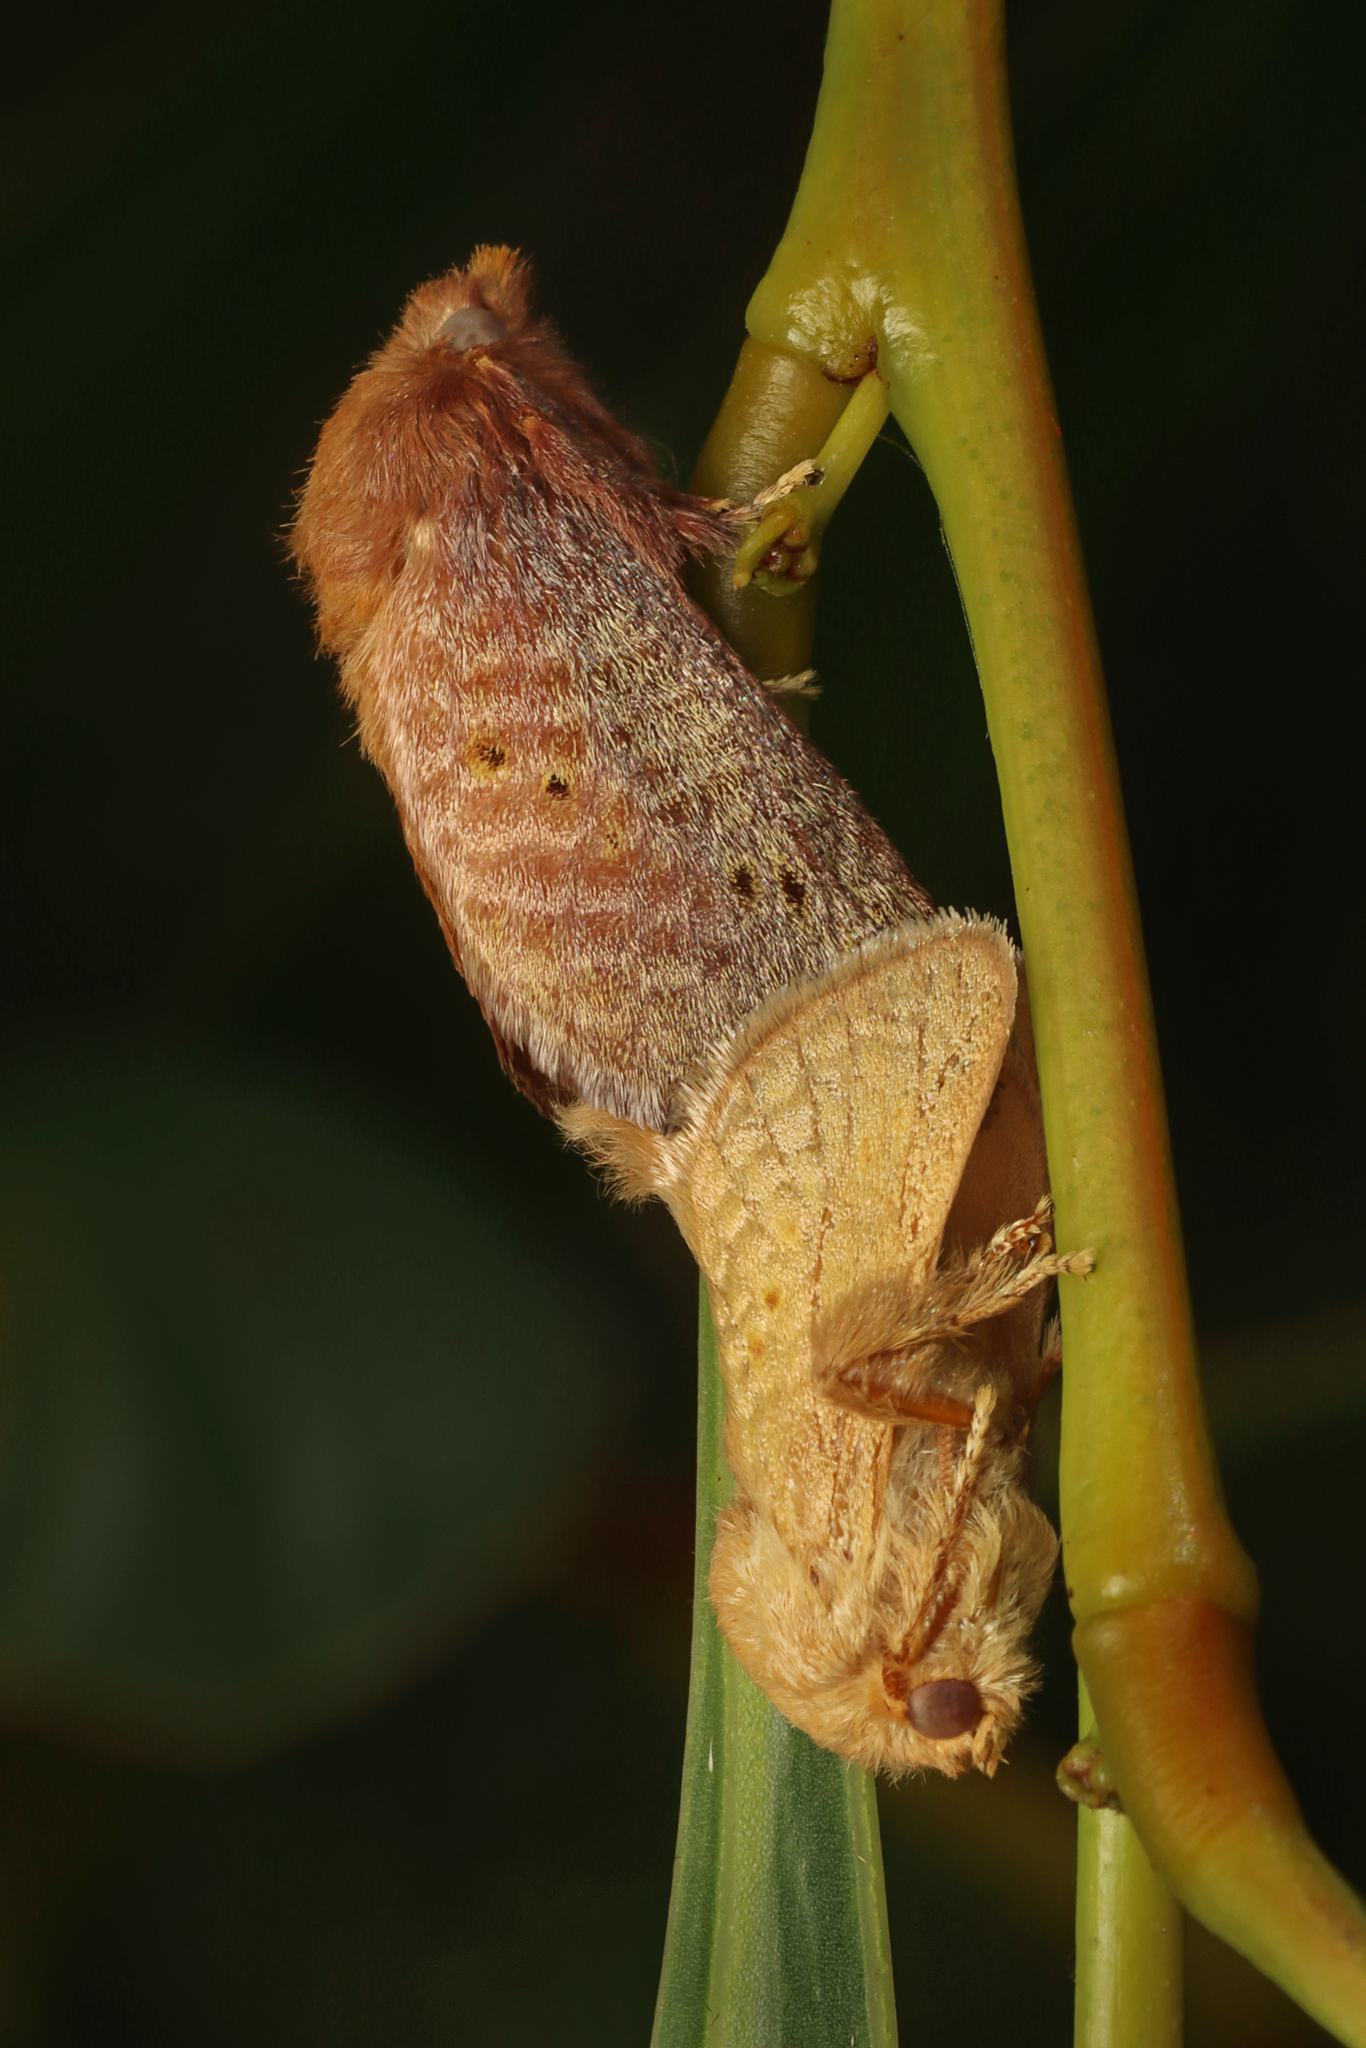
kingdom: Animalia
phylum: Arthropoda
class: Insecta
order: Lepidoptera
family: Limacodidae
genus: Doratifera
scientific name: Doratifera quadriguttata
